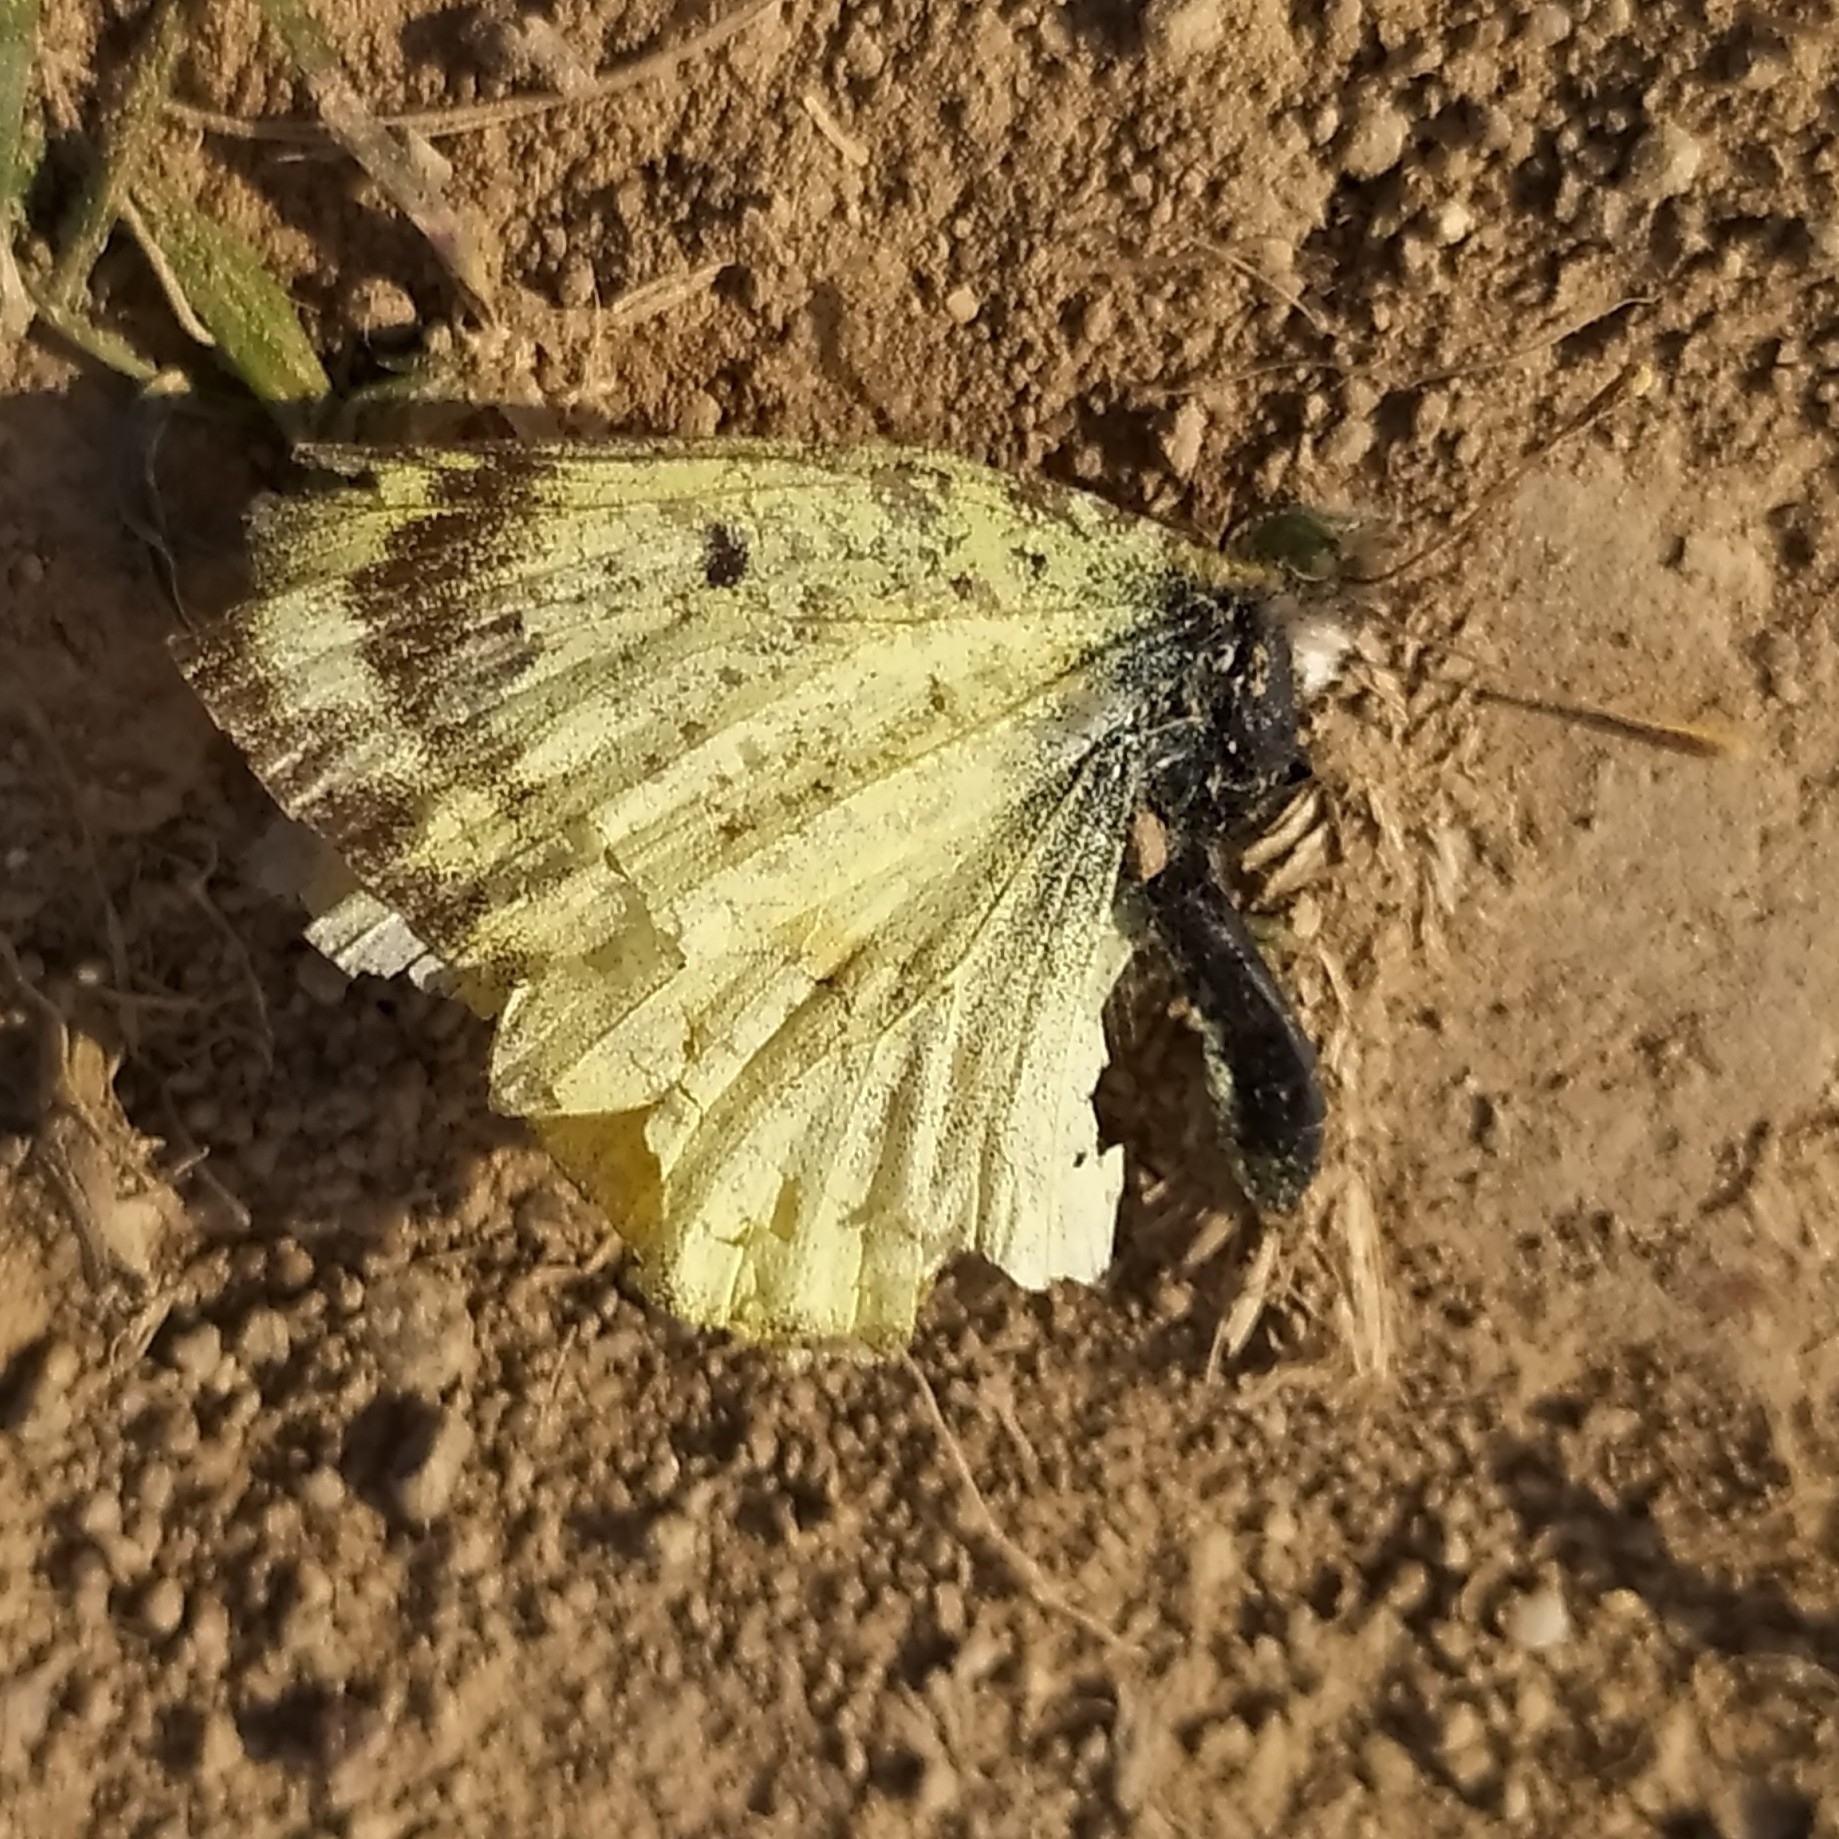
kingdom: Animalia
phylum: Arthropoda
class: Insecta
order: Lepidoptera
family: Pieridae
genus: Colias
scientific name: Colias hyale
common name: Pale clouded yellow
